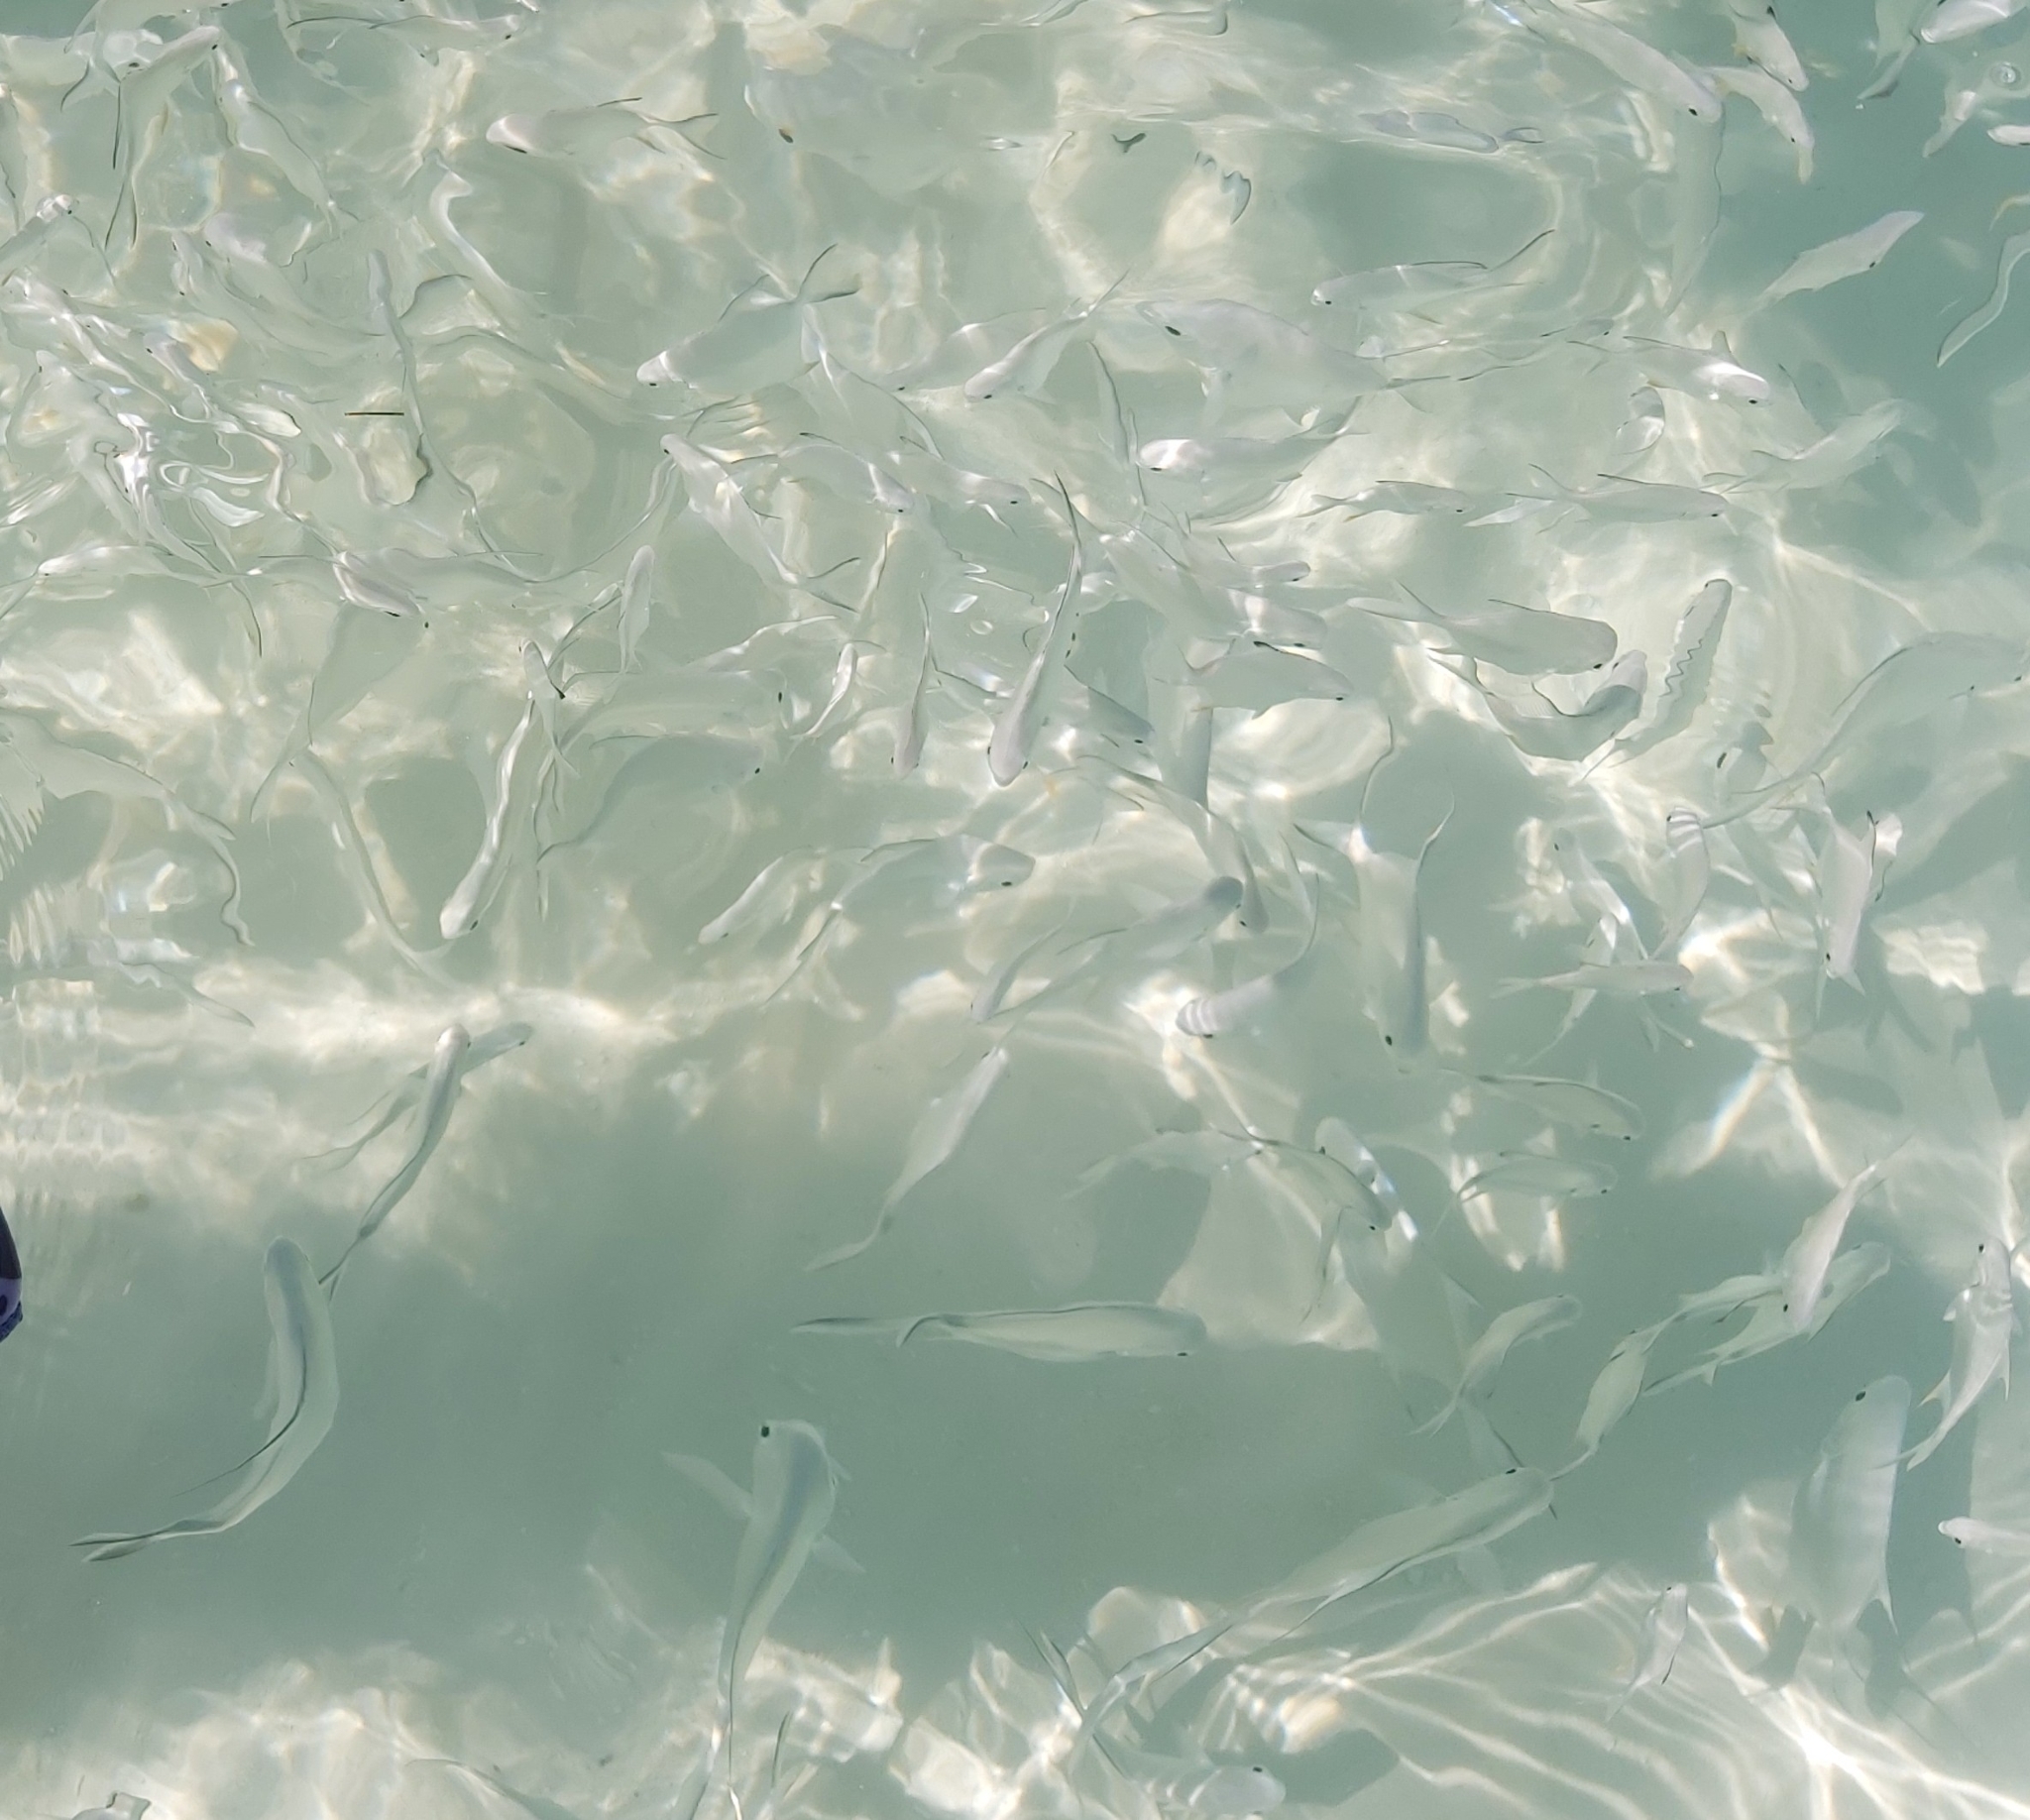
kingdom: Animalia
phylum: Chordata
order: Perciformes
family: Carangidae
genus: Trachinotus
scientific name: Trachinotus falcatus
